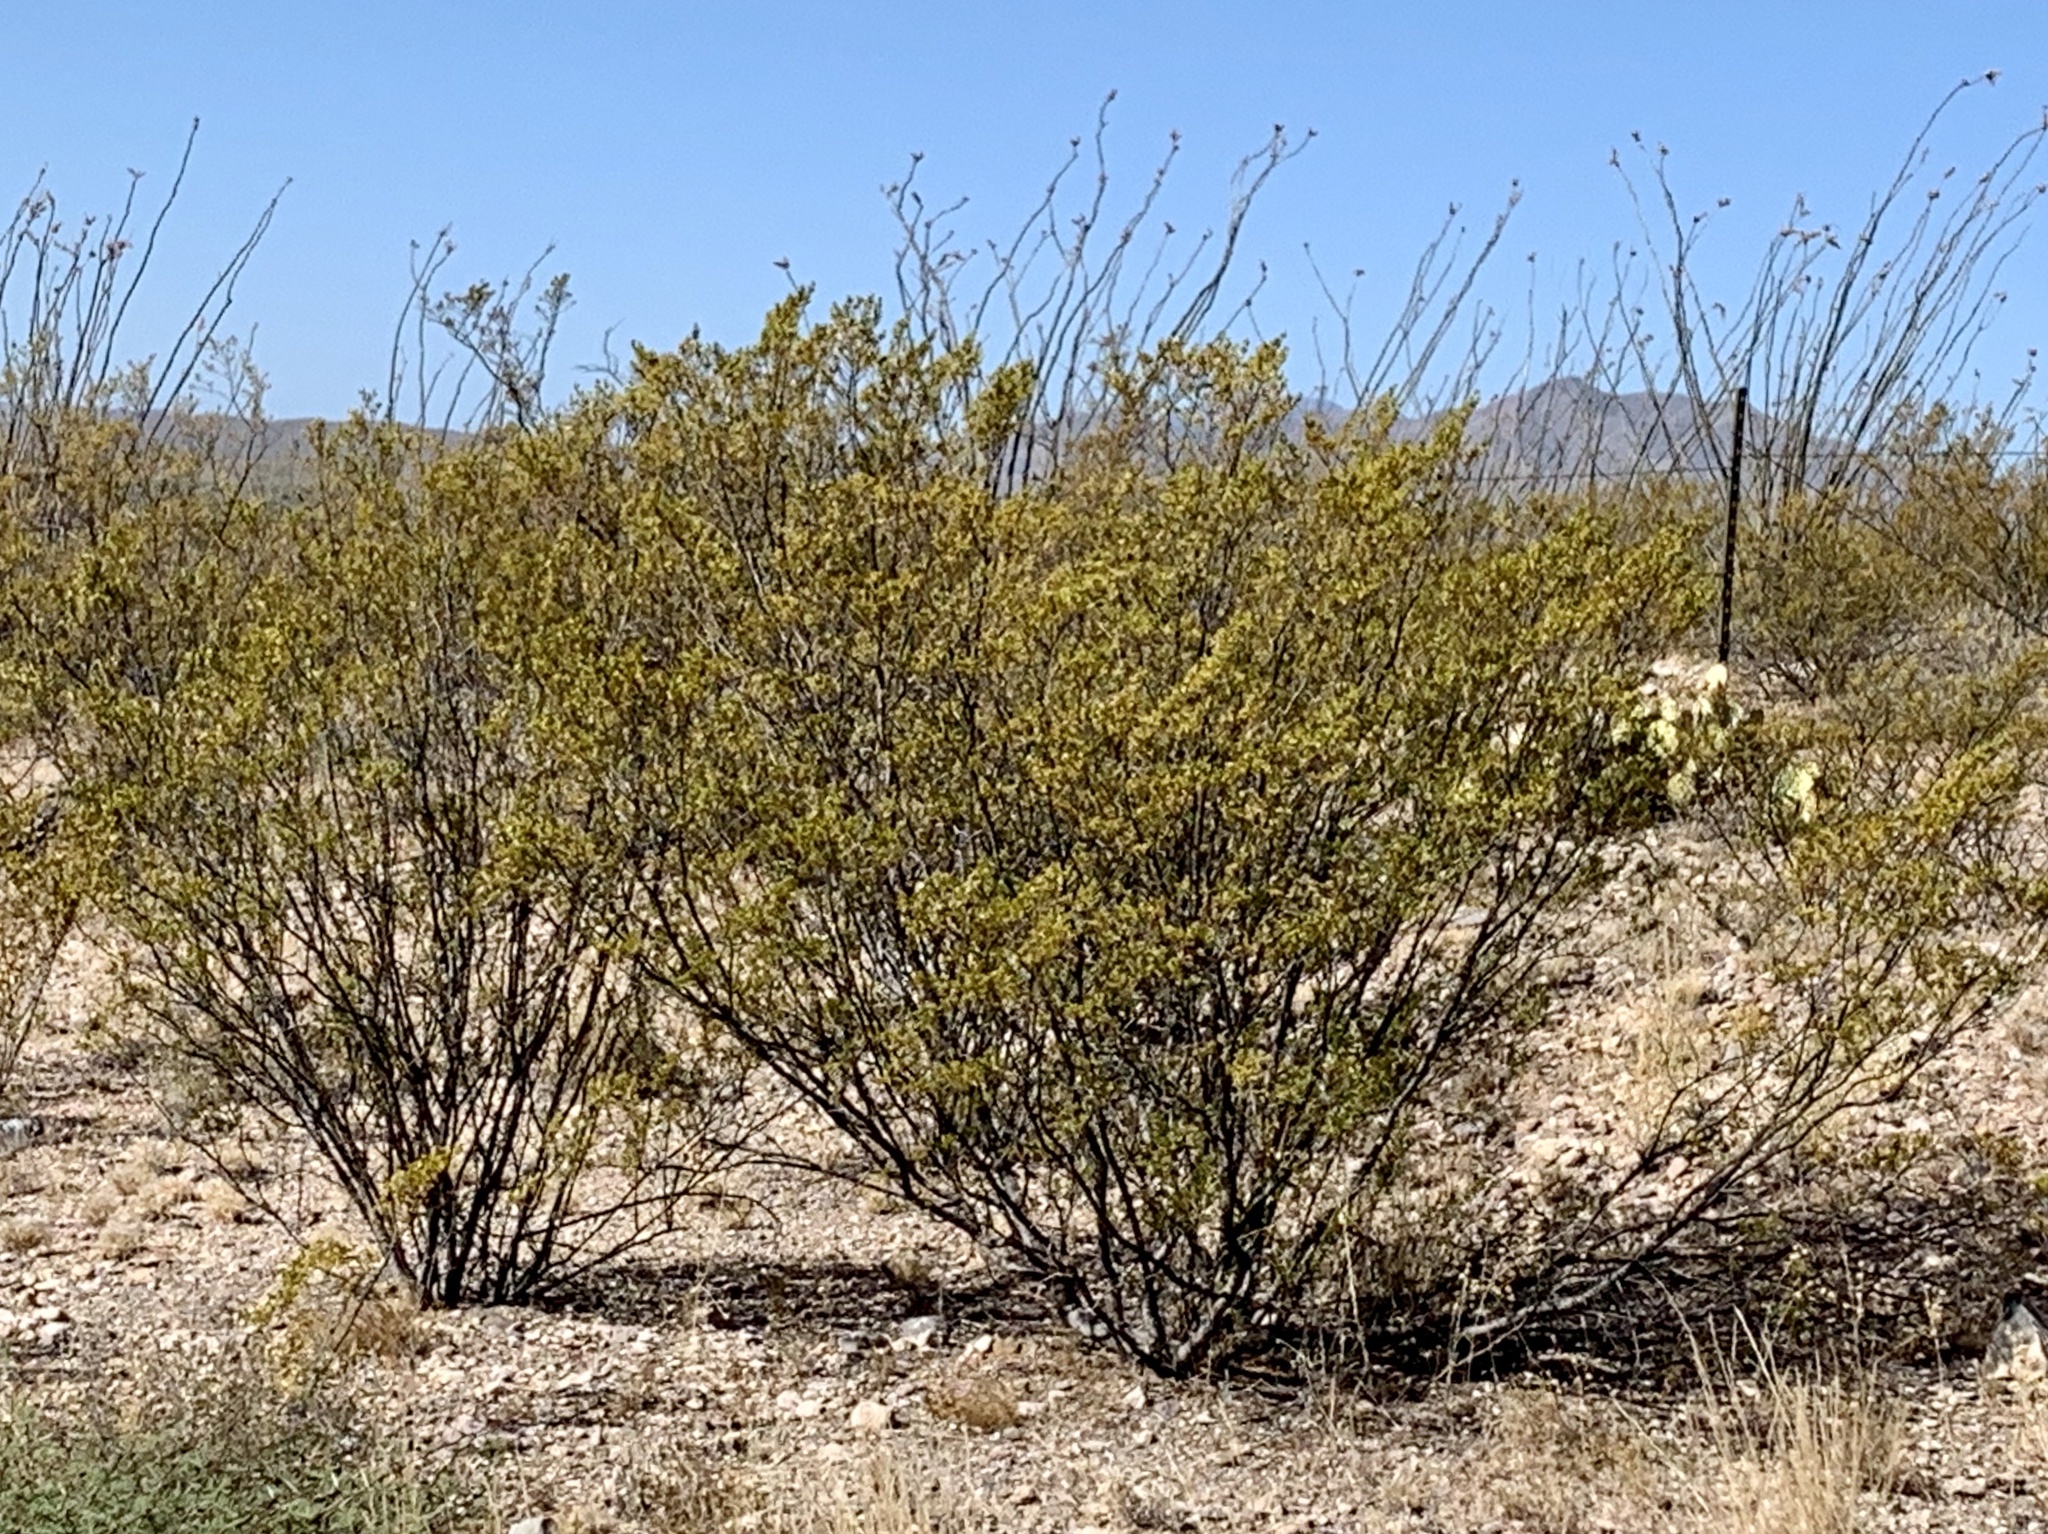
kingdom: Plantae
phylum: Tracheophyta
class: Magnoliopsida
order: Zygophyllales
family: Zygophyllaceae
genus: Larrea
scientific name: Larrea tridentata
